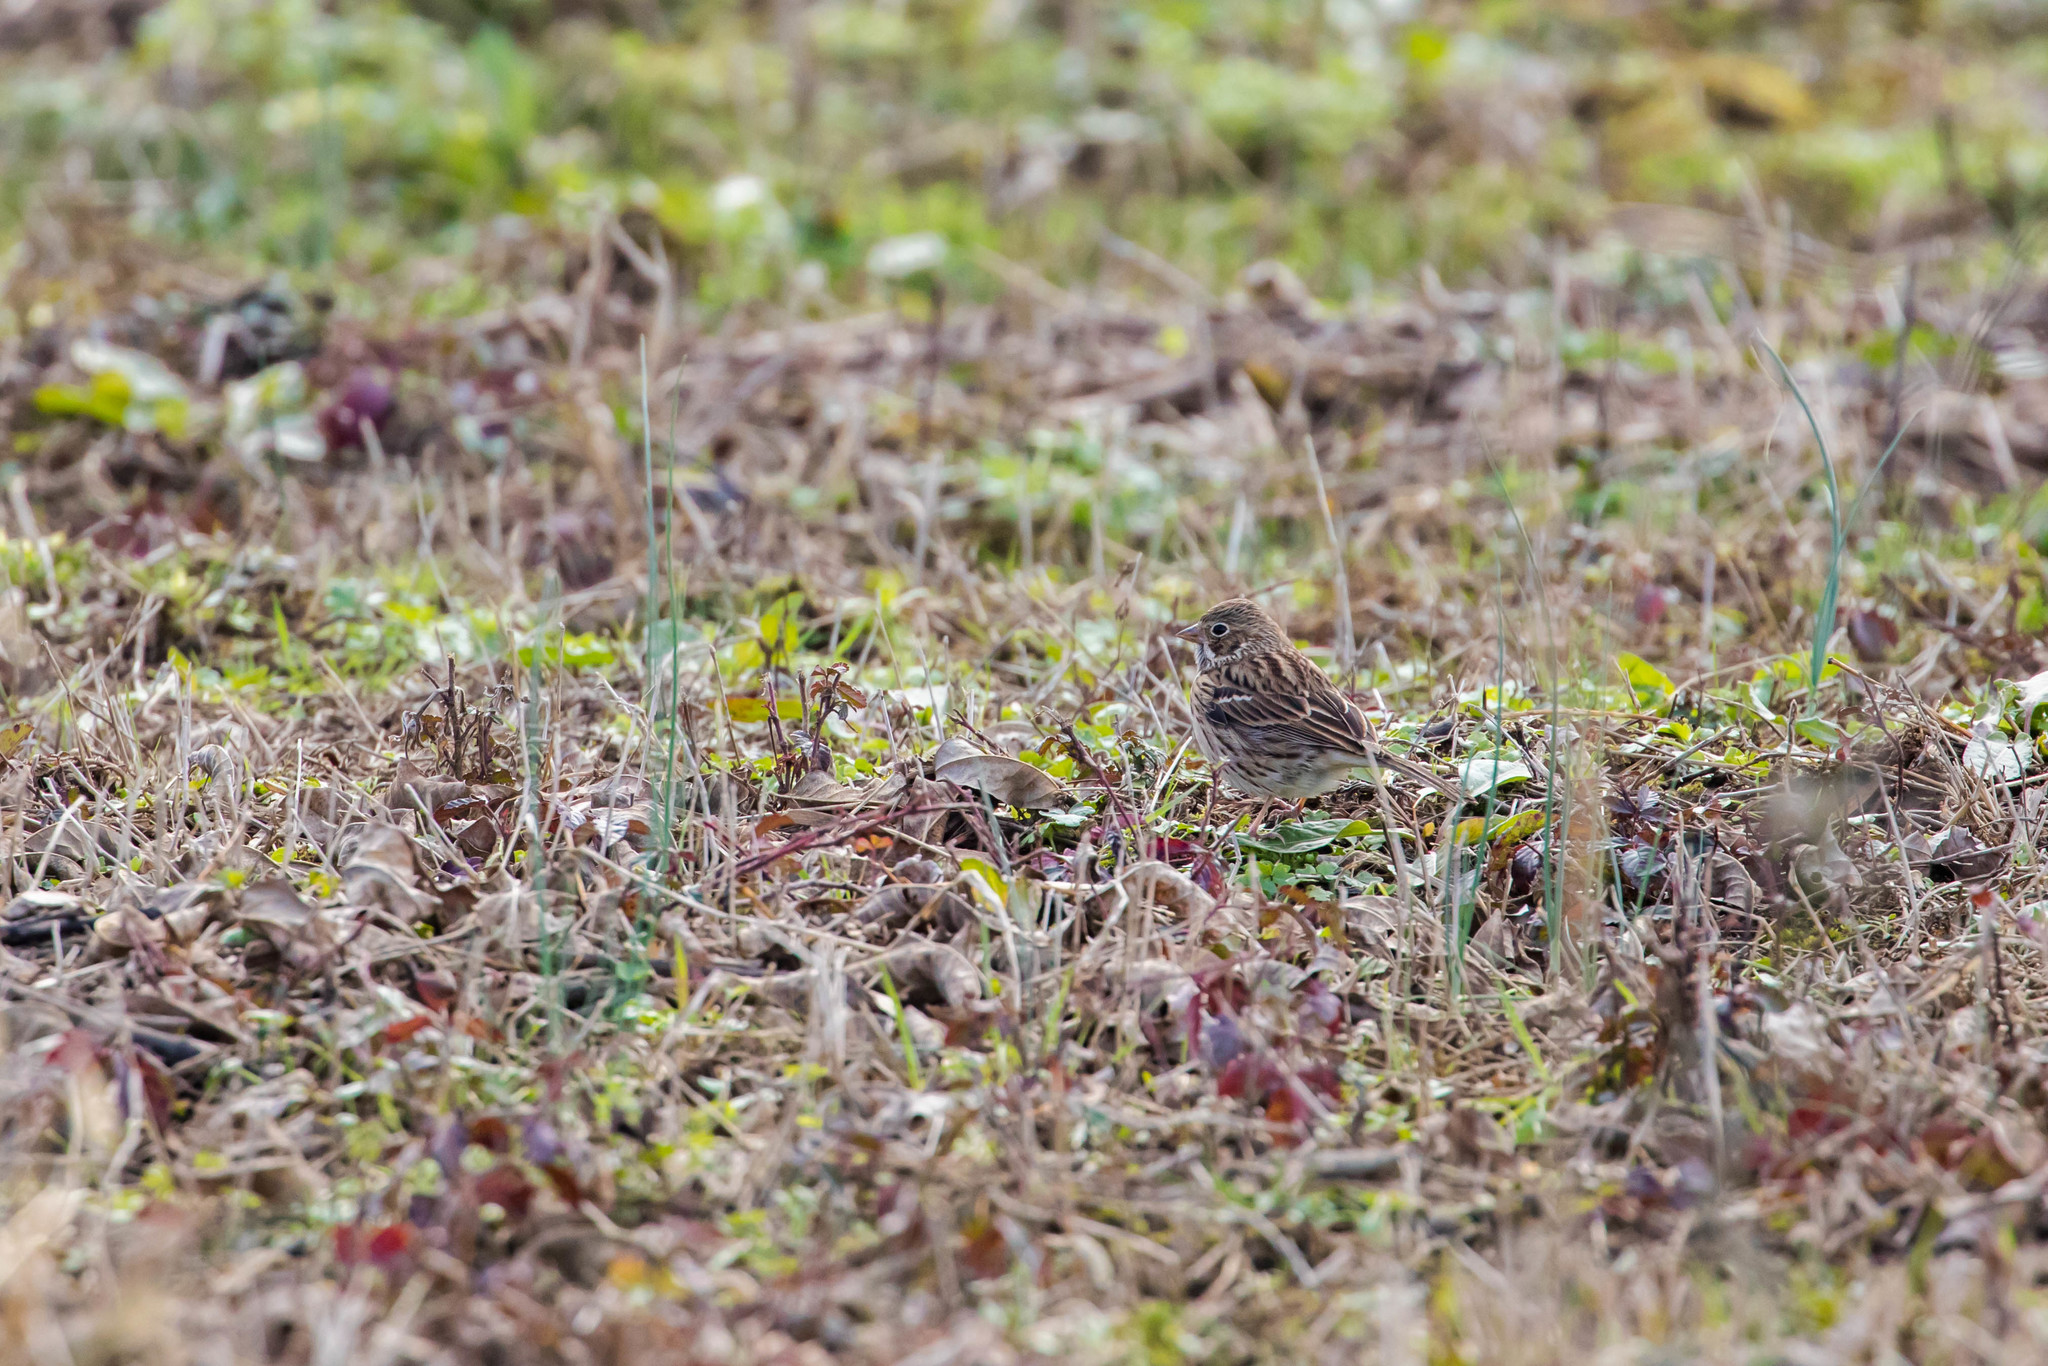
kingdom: Animalia
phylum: Chordata
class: Aves
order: Passeriformes
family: Passerellidae
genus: Pooecetes
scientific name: Pooecetes gramineus
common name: Vesper sparrow
